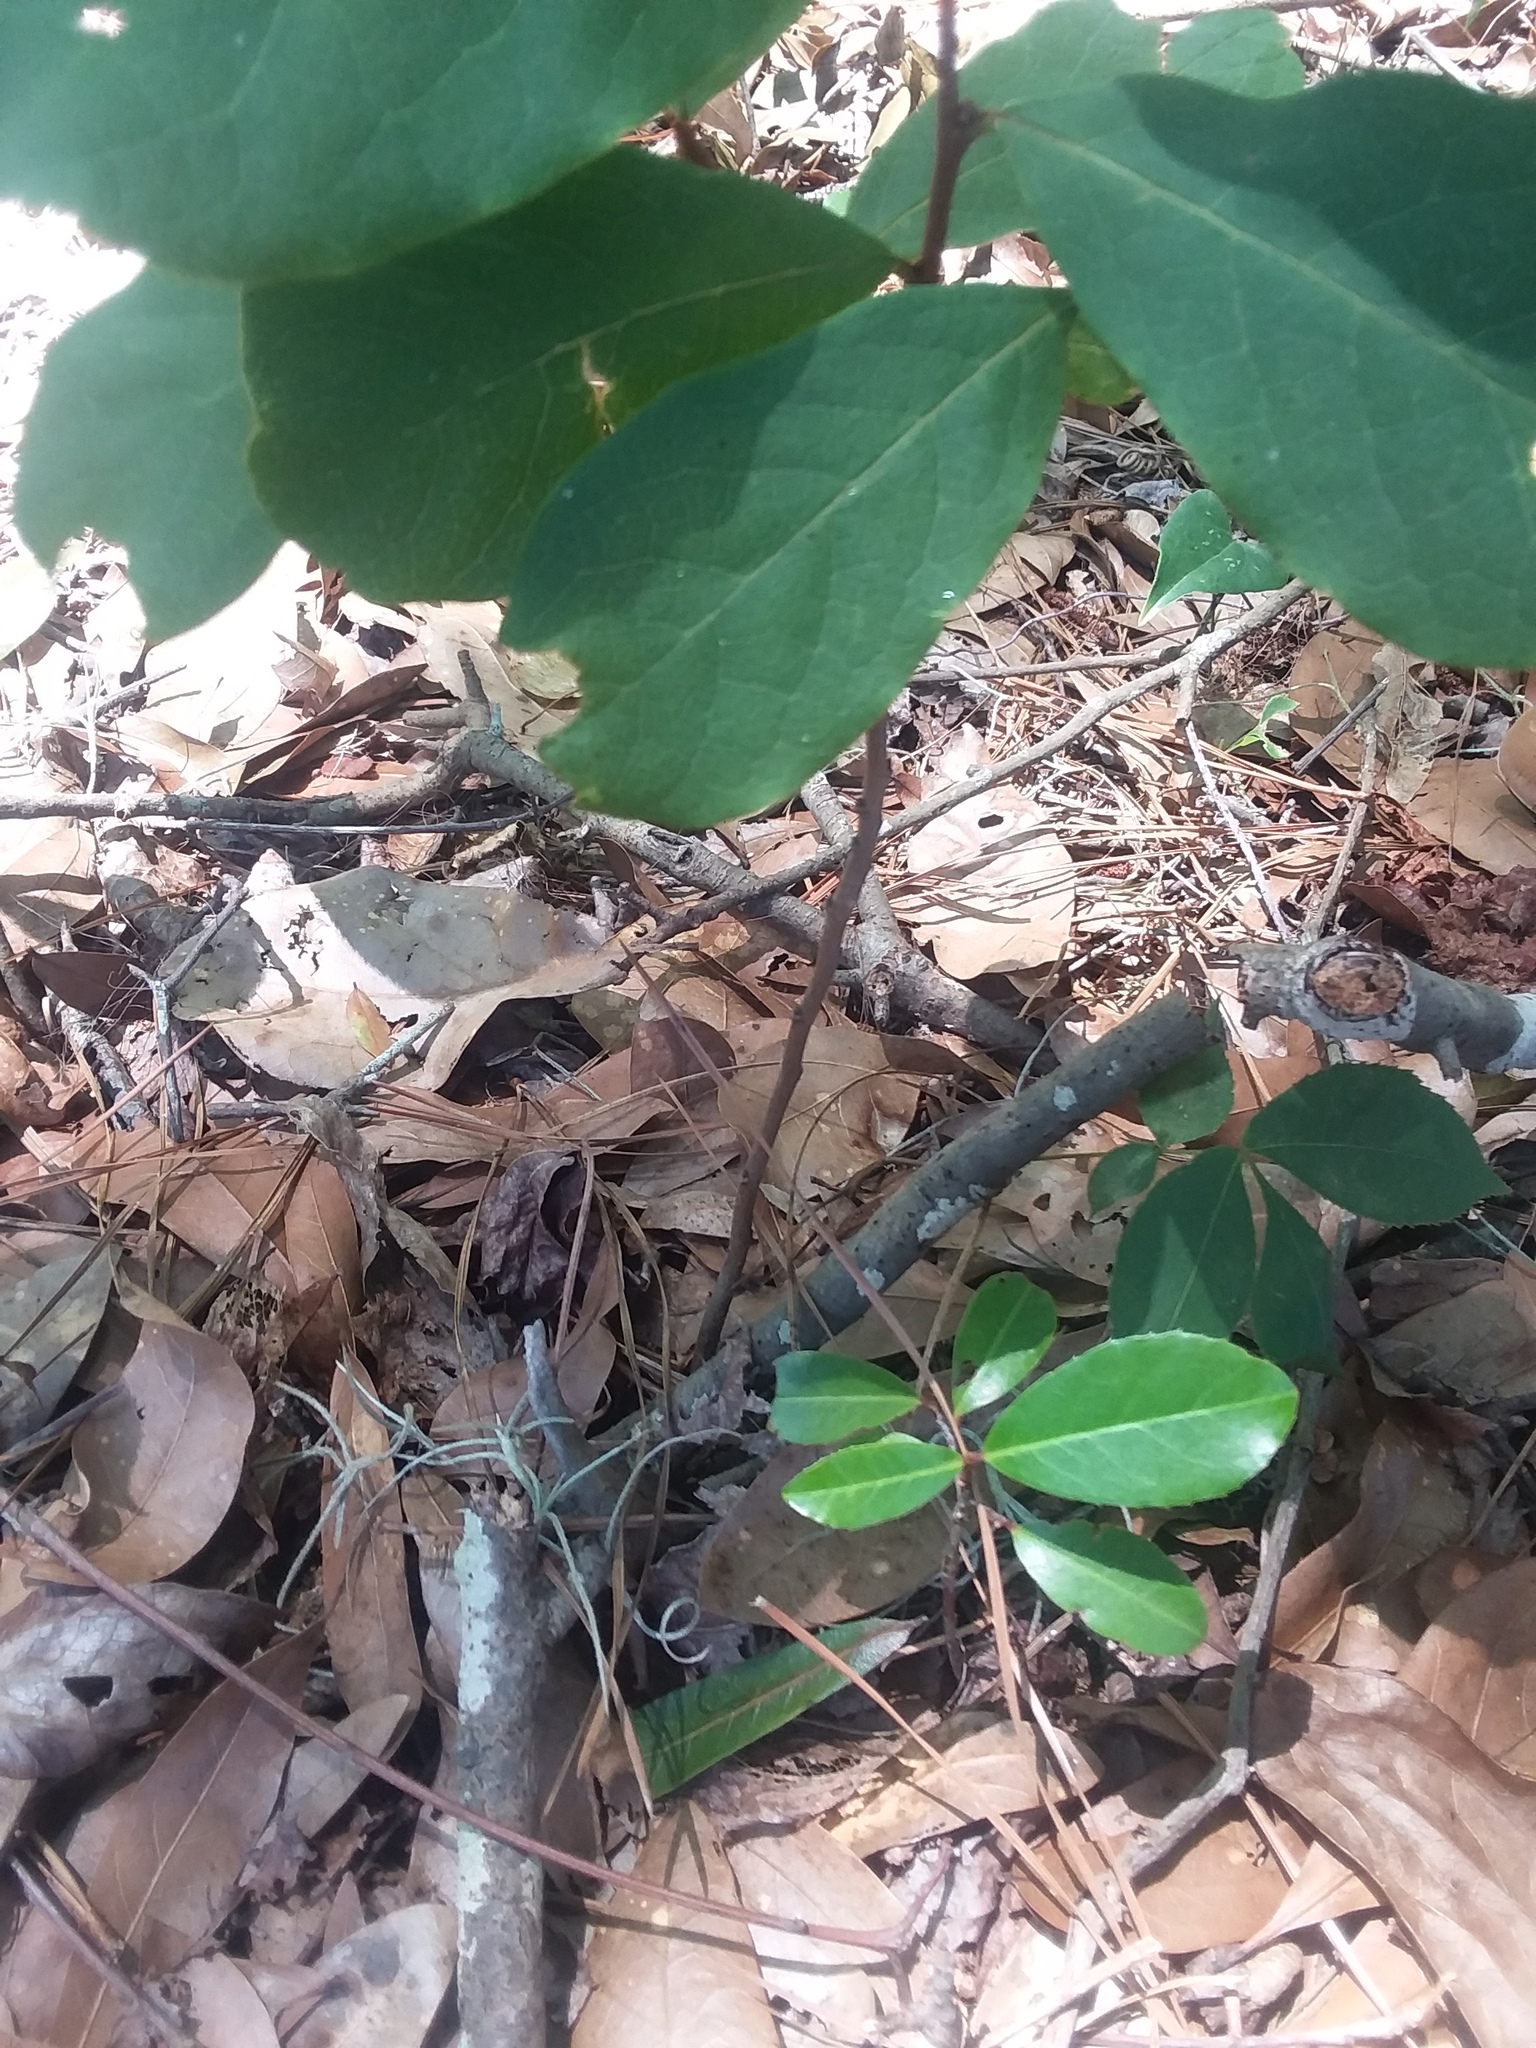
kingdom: Plantae
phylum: Tracheophyta
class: Magnoliopsida
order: Magnoliales
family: Annonaceae
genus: Asimina
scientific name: Asimina parviflora
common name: Dwarf pawpaw
